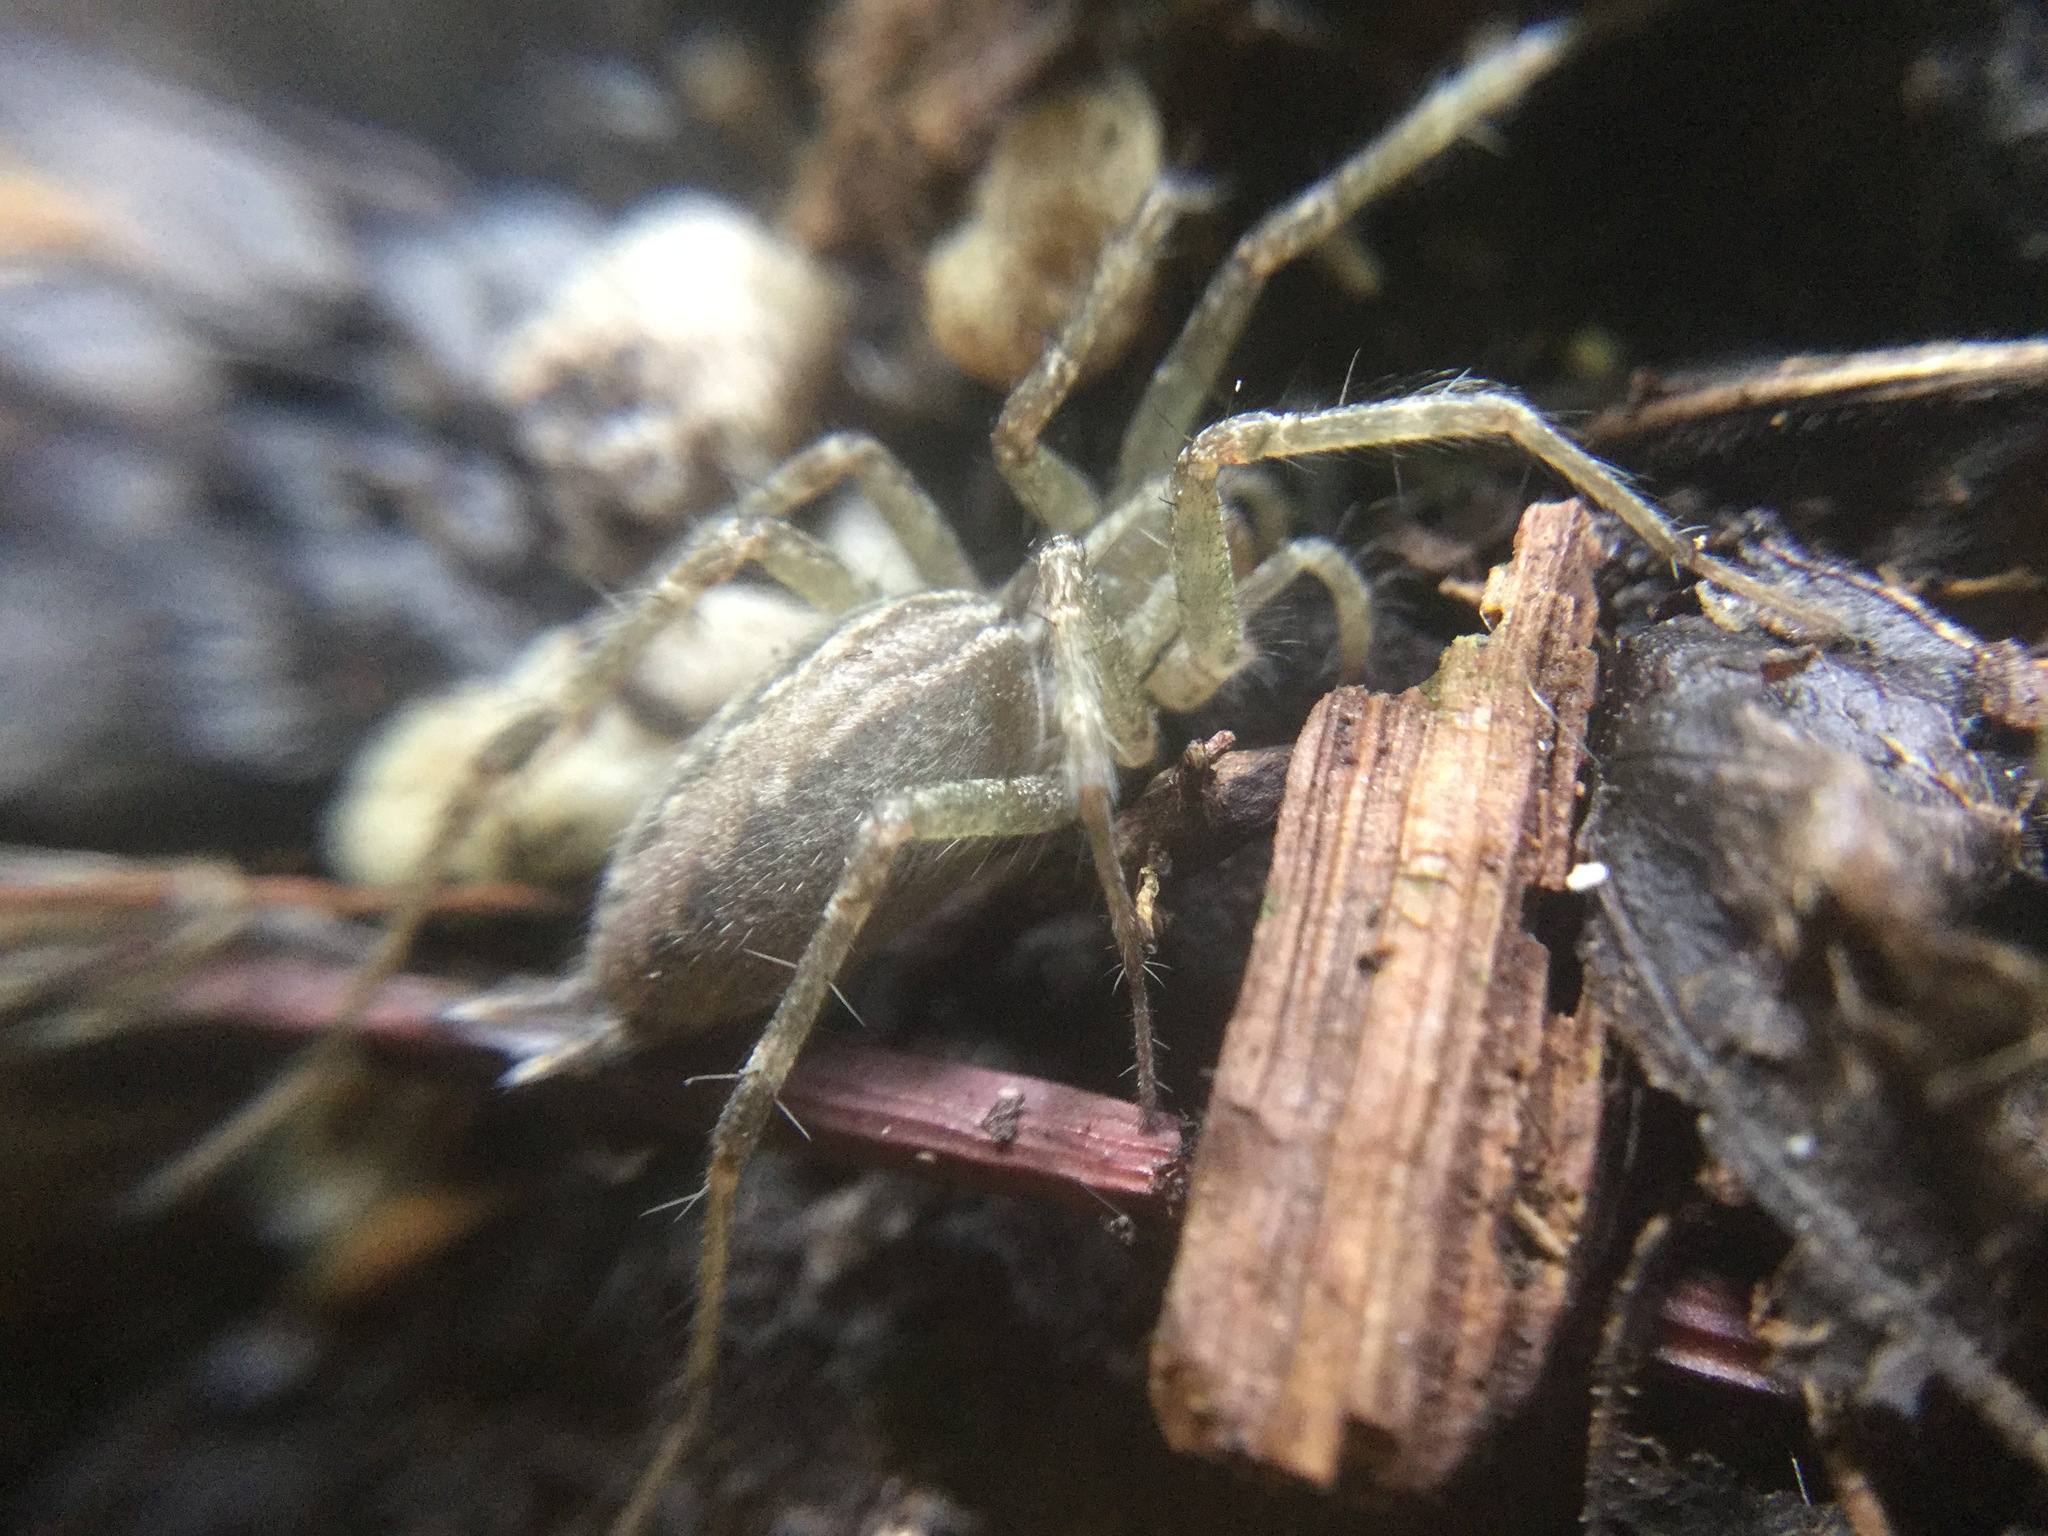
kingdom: Animalia
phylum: Arthropoda
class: Arachnida
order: Araneae
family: Agelenidae
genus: Agelenopsis
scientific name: Agelenopsis
